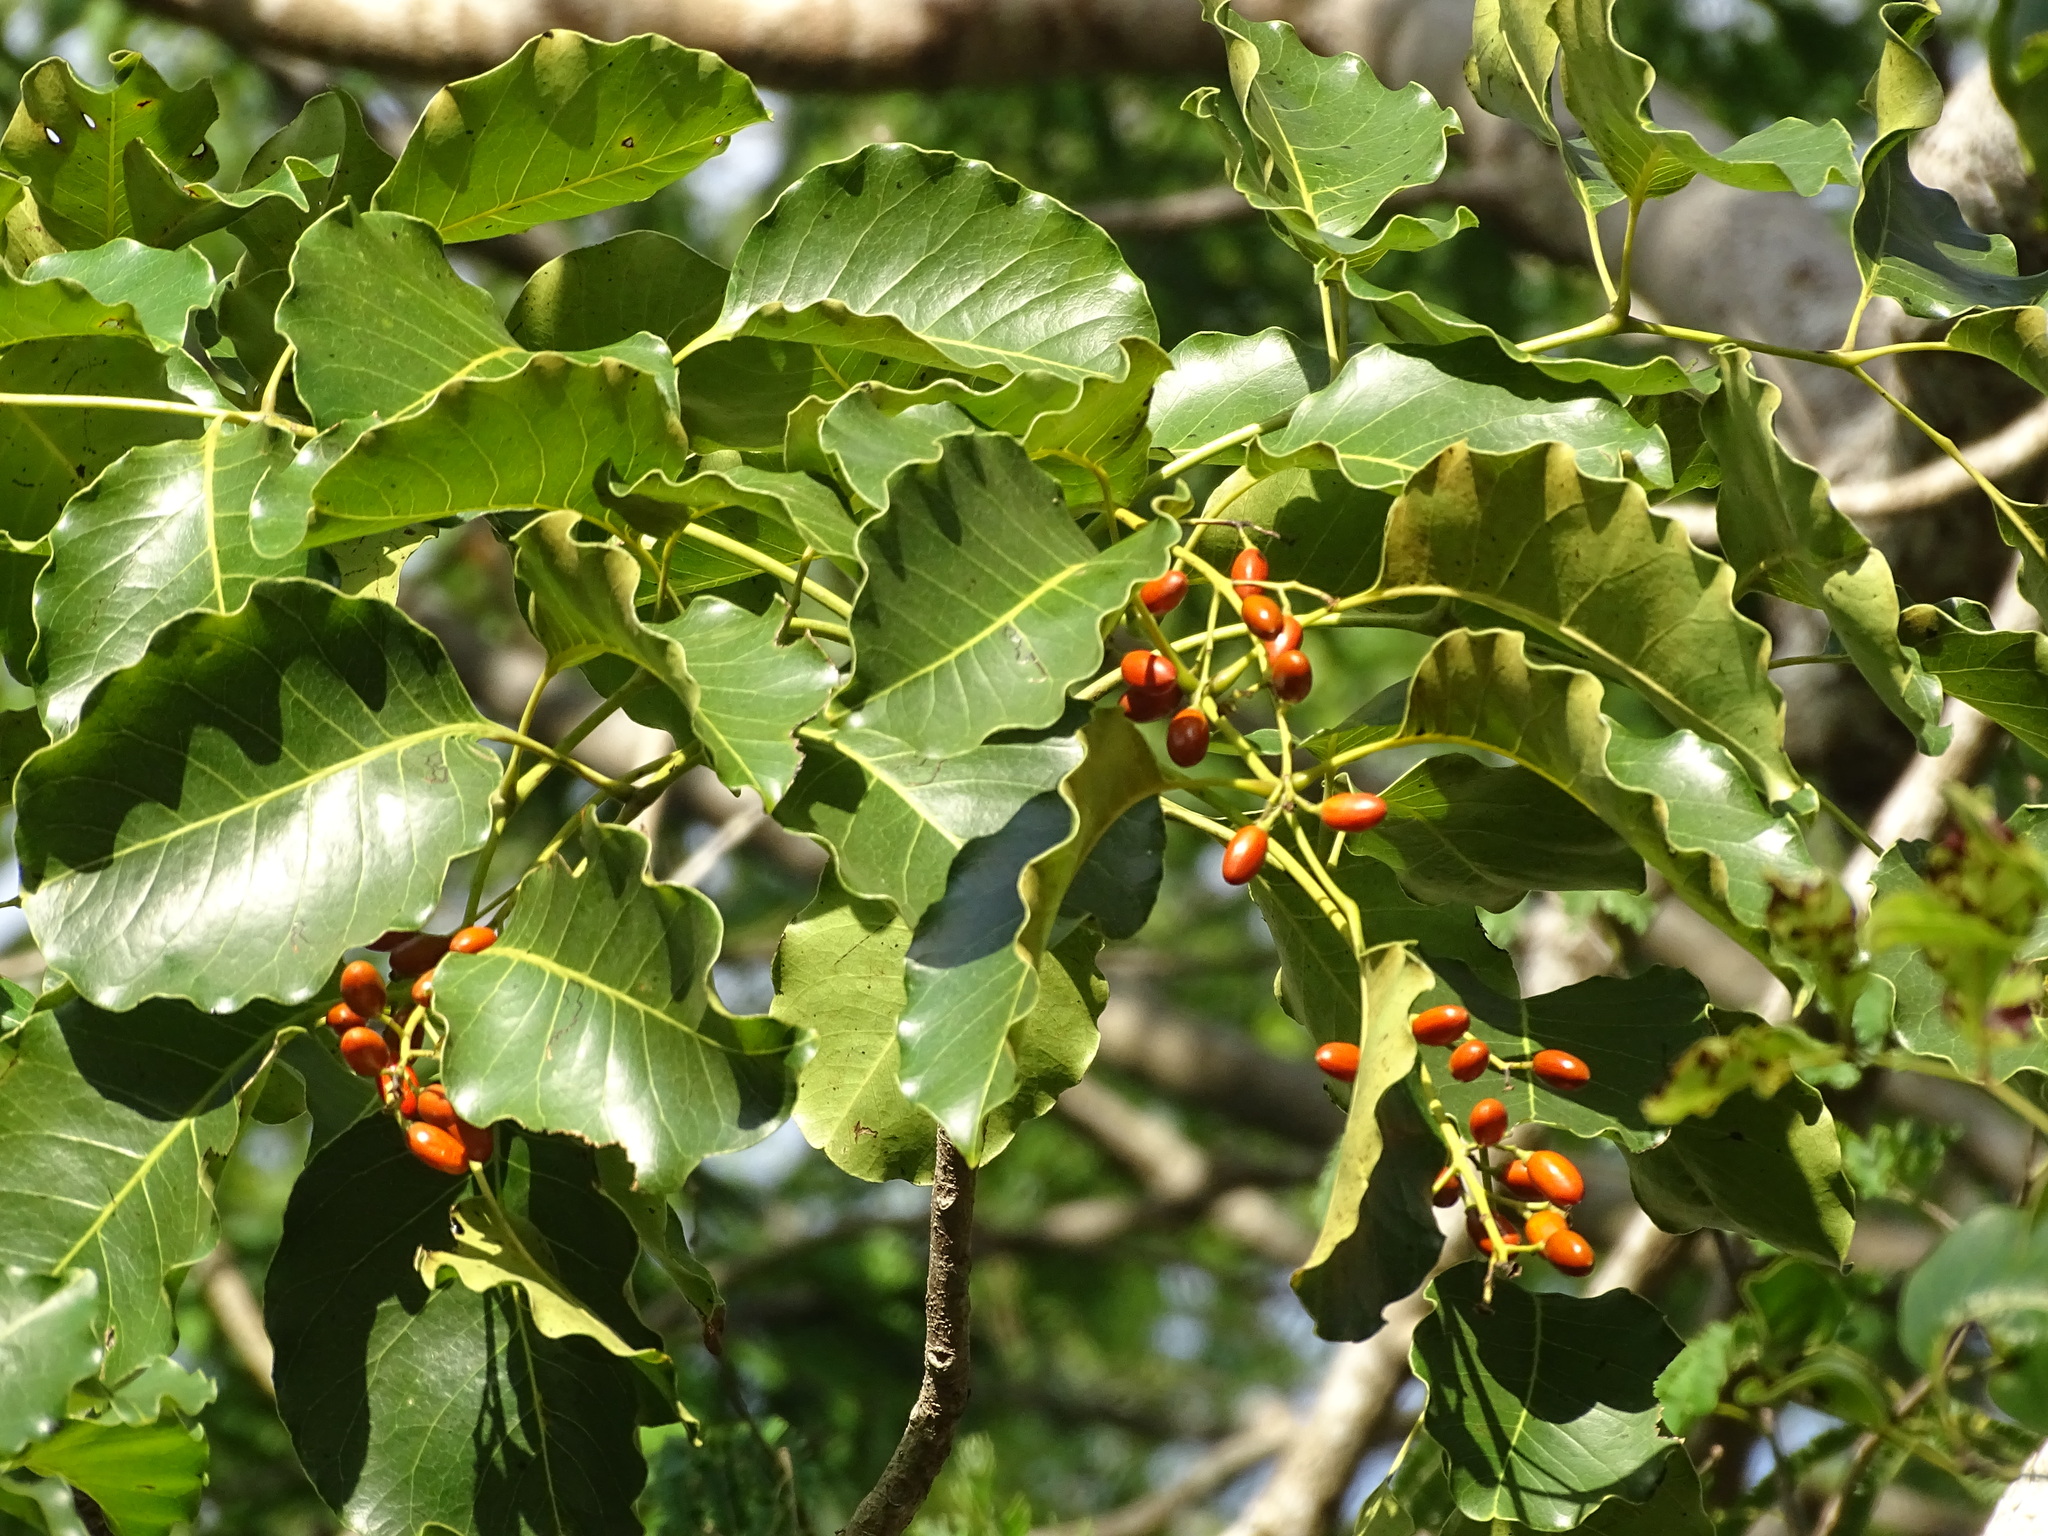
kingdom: Plantae
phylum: Tracheophyta
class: Magnoliopsida
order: Sapindales
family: Anacardiaceae
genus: Metopium
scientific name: Metopium brownei
